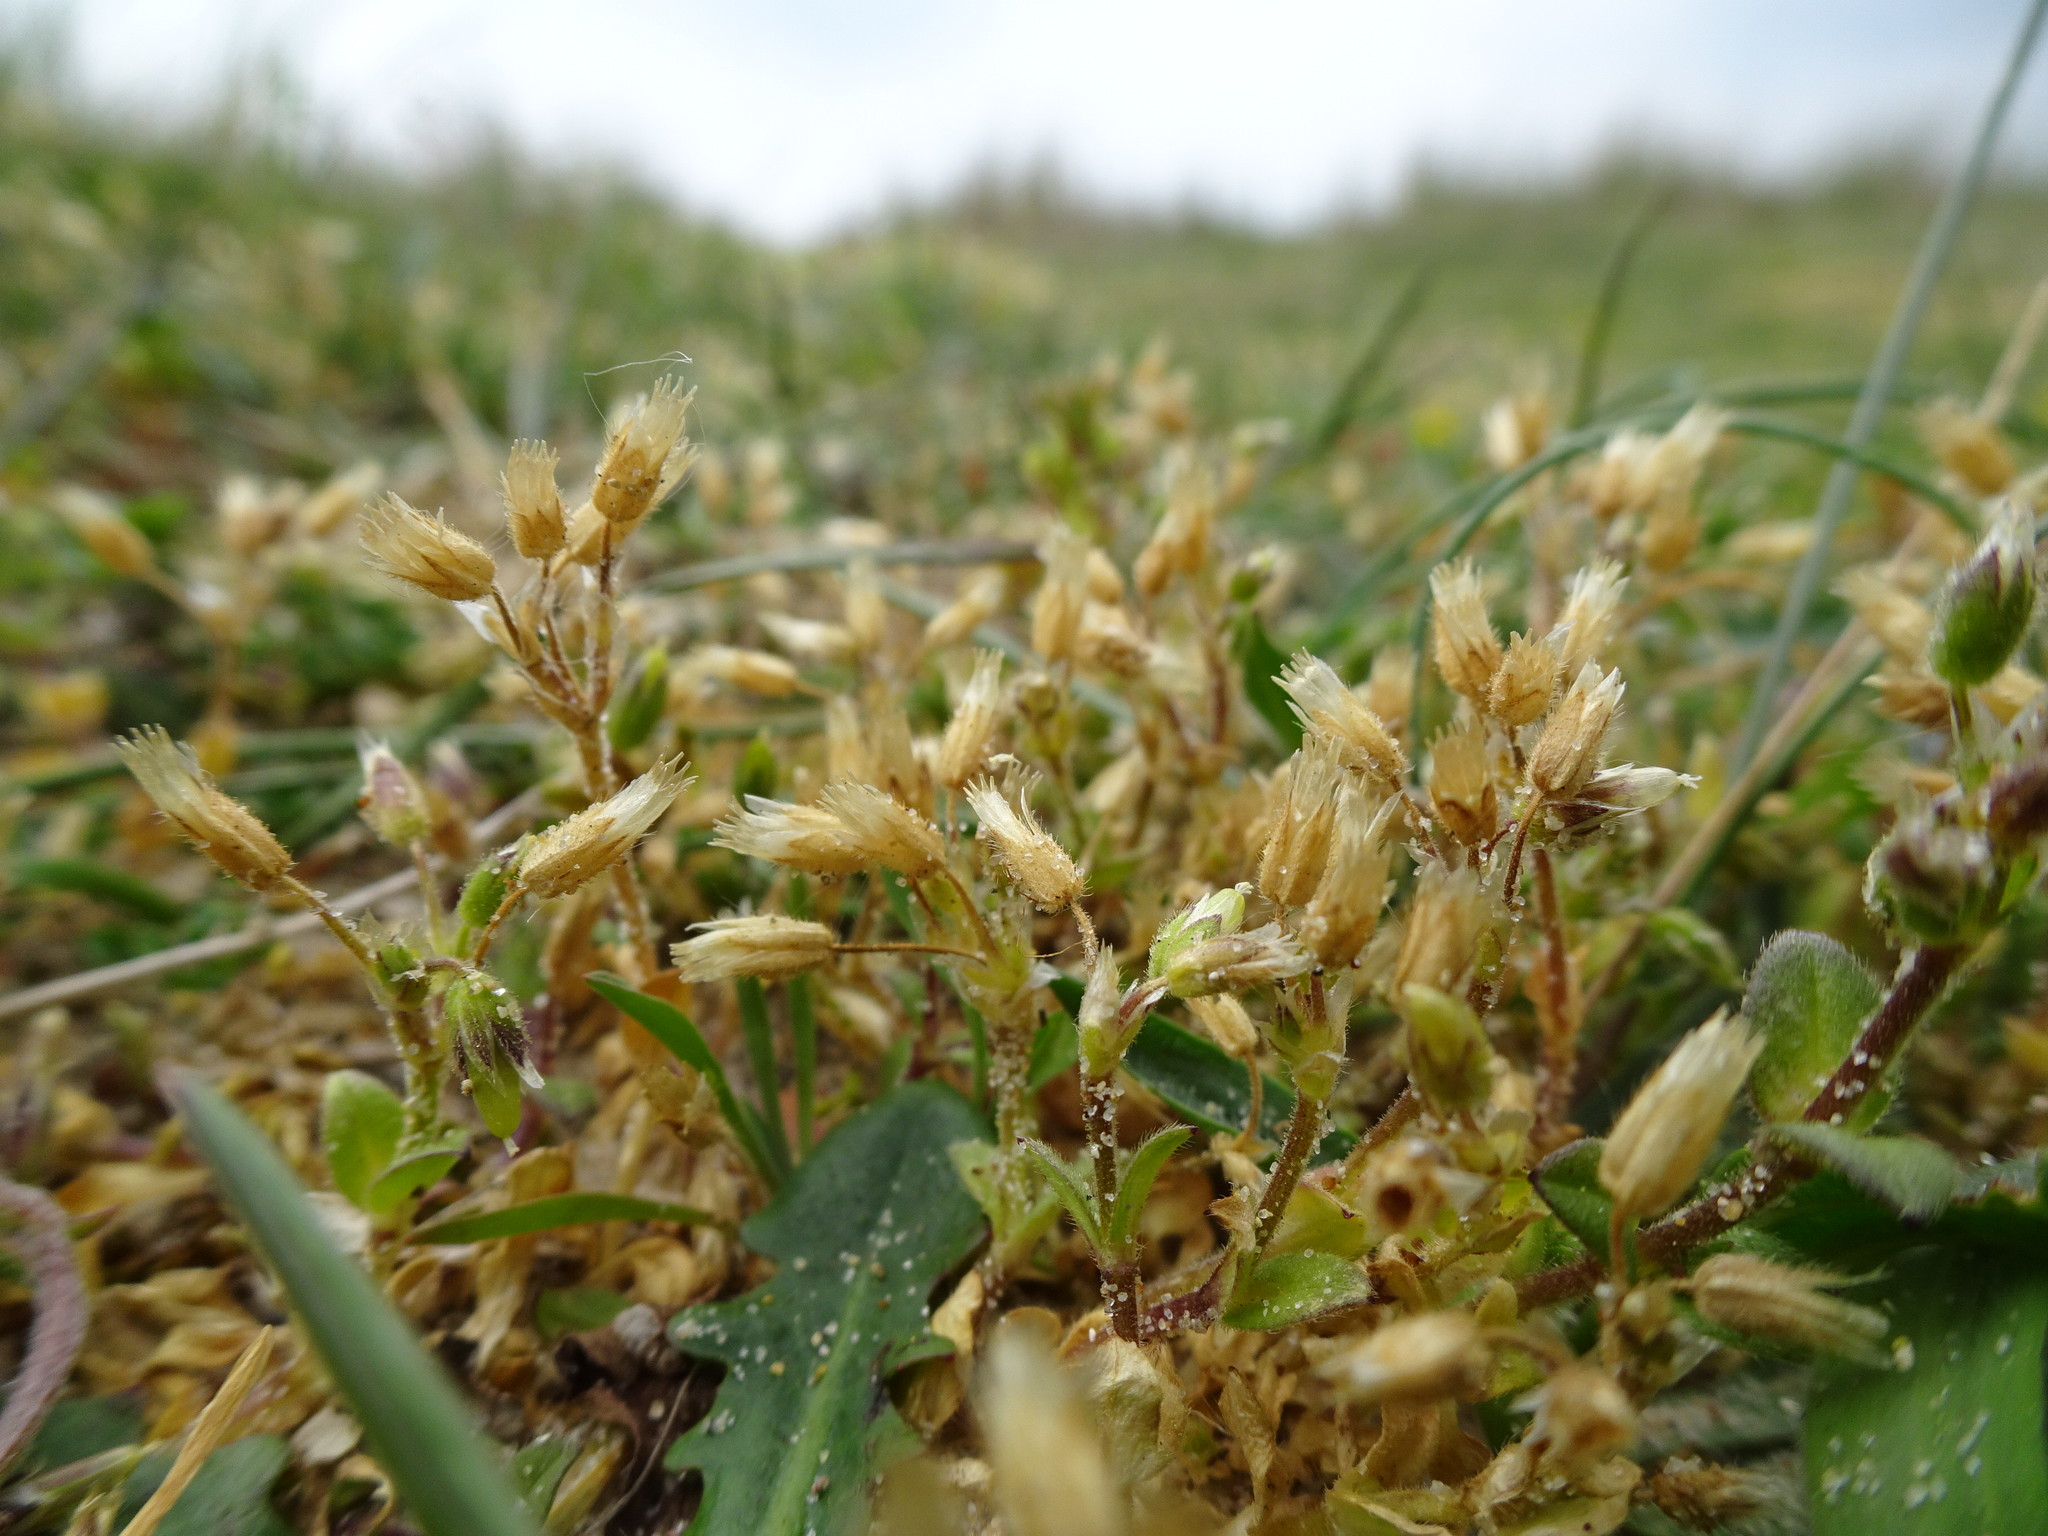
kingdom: Plantae
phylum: Tracheophyta
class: Magnoliopsida
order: Caryophyllales
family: Caryophyllaceae
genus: Cerastium
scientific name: Cerastium semidecandrum
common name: Little mouse-ear
